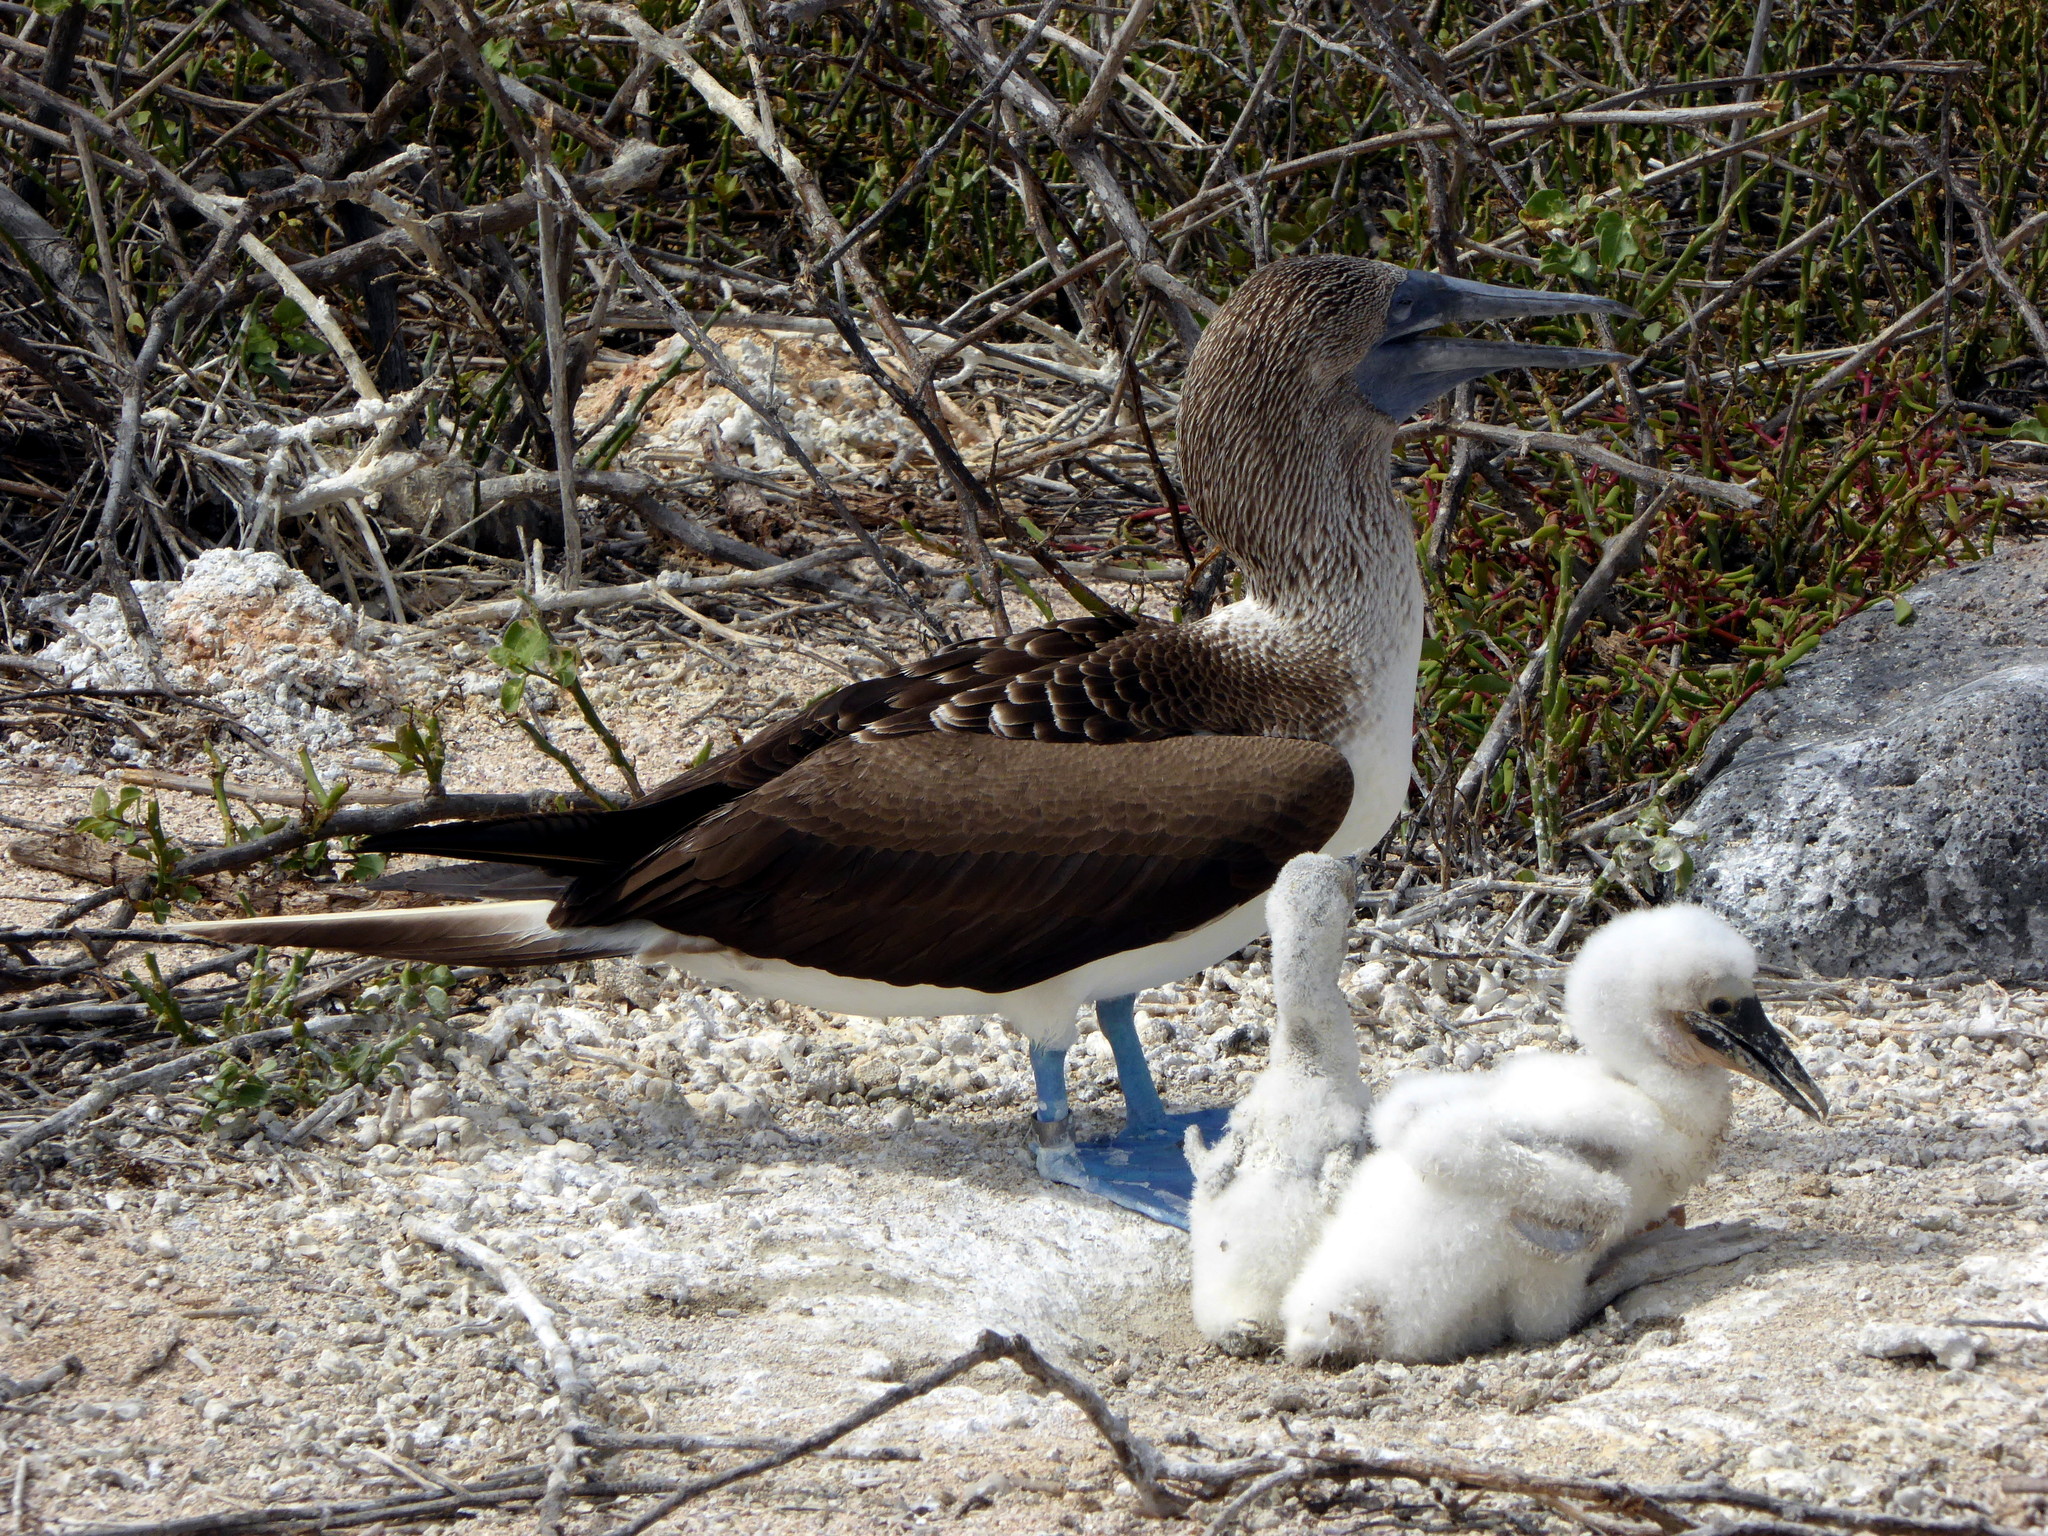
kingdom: Animalia
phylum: Chordata
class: Aves
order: Suliformes
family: Sulidae
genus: Sula
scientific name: Sula nebouxii
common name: Blue-footed booby
